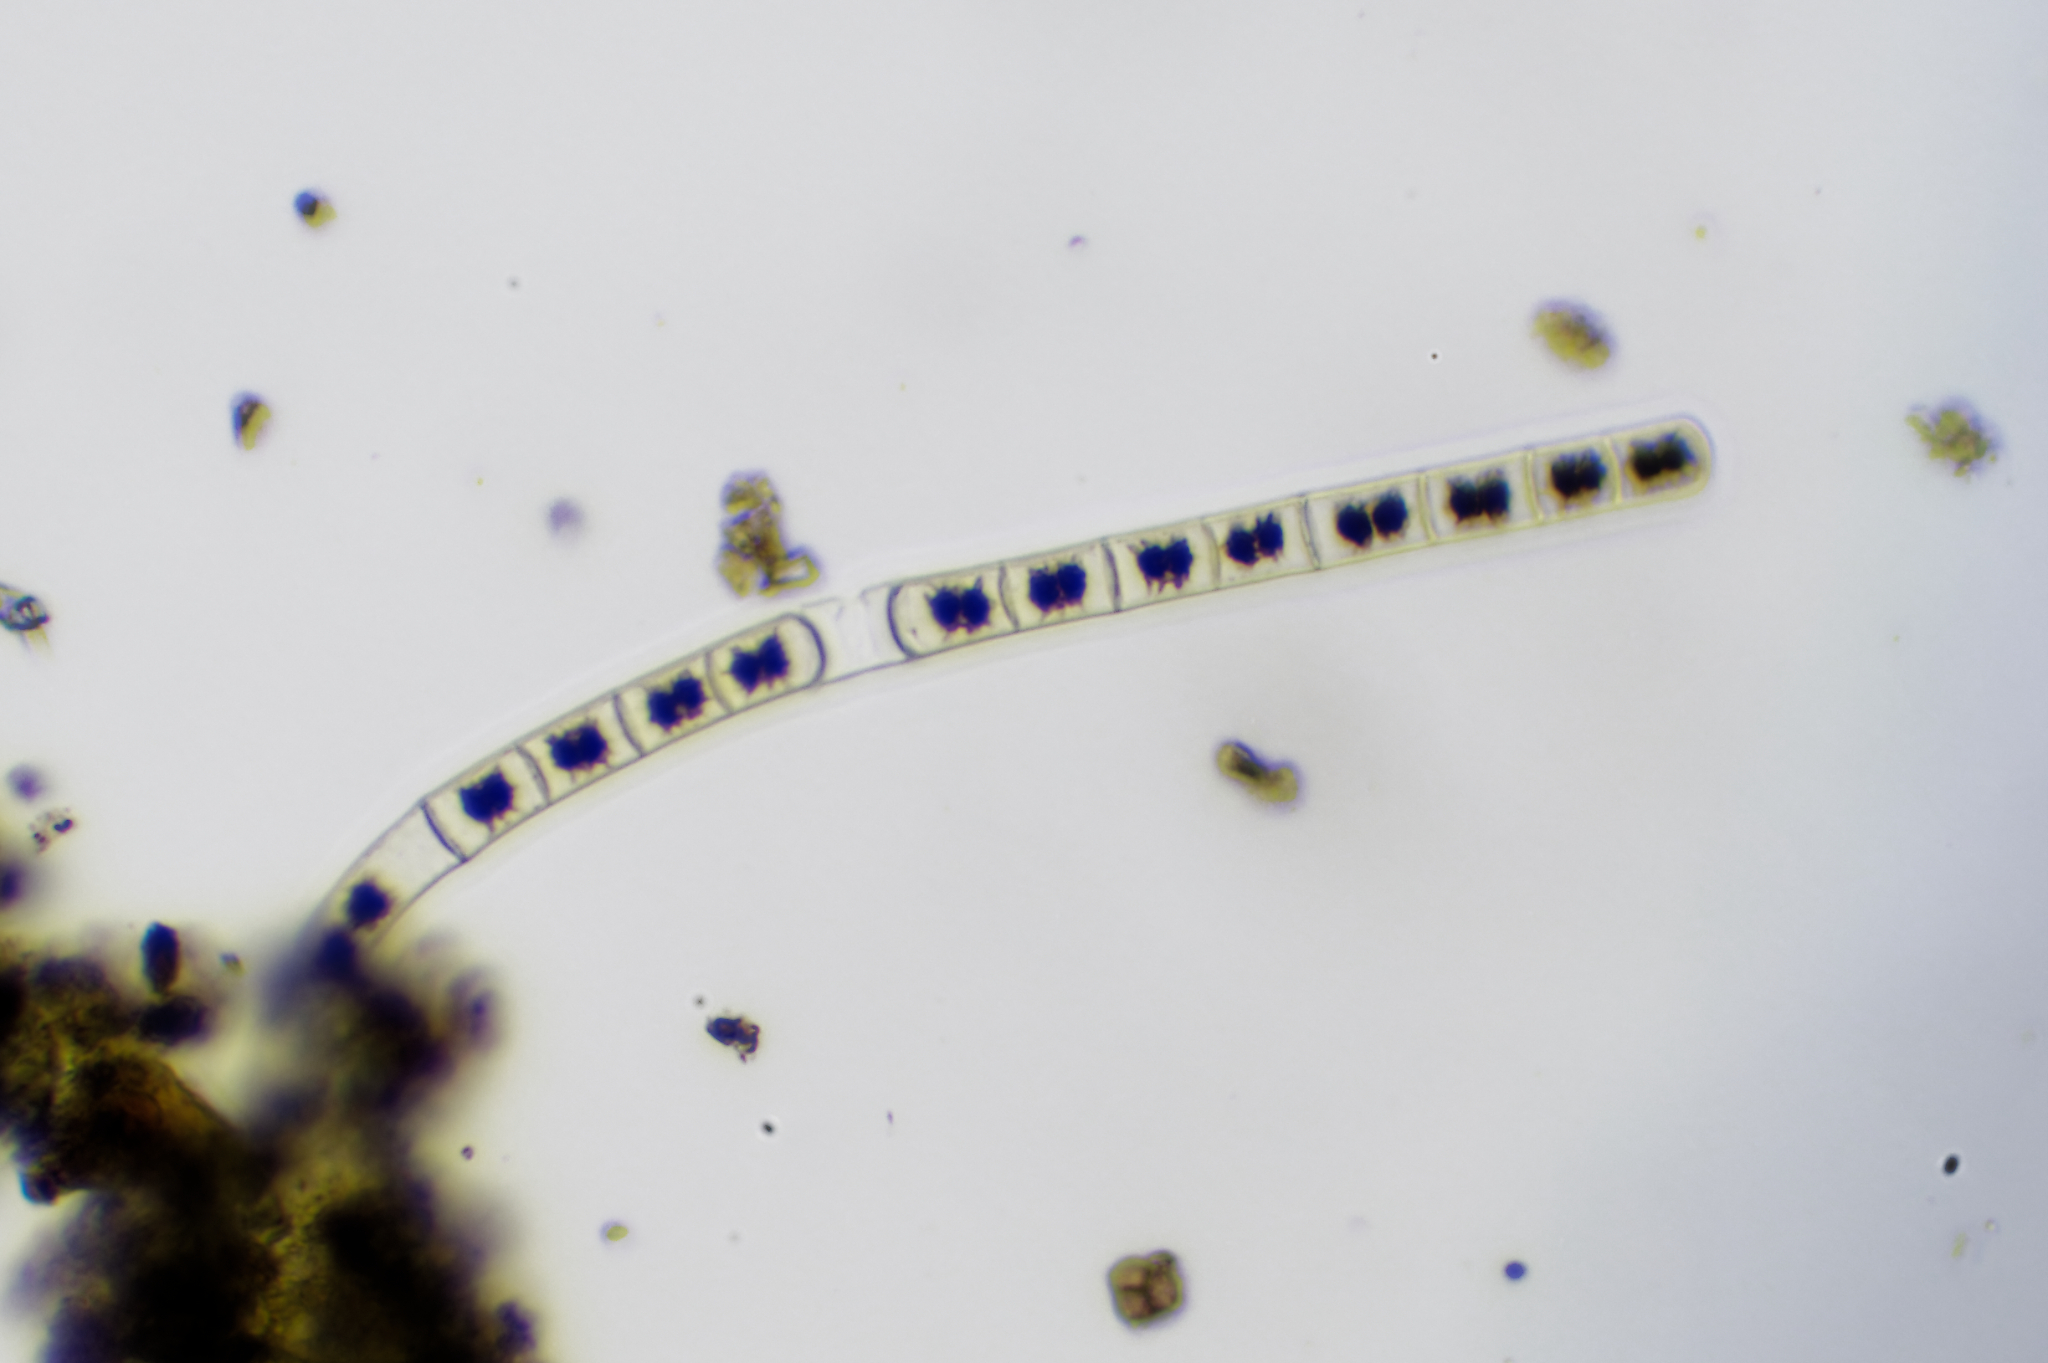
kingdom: Plantae
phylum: Charophyta
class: Zygnematophyceae
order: Zygnematales
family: Zygnemataceae
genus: Zygnema
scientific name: Zygnema
